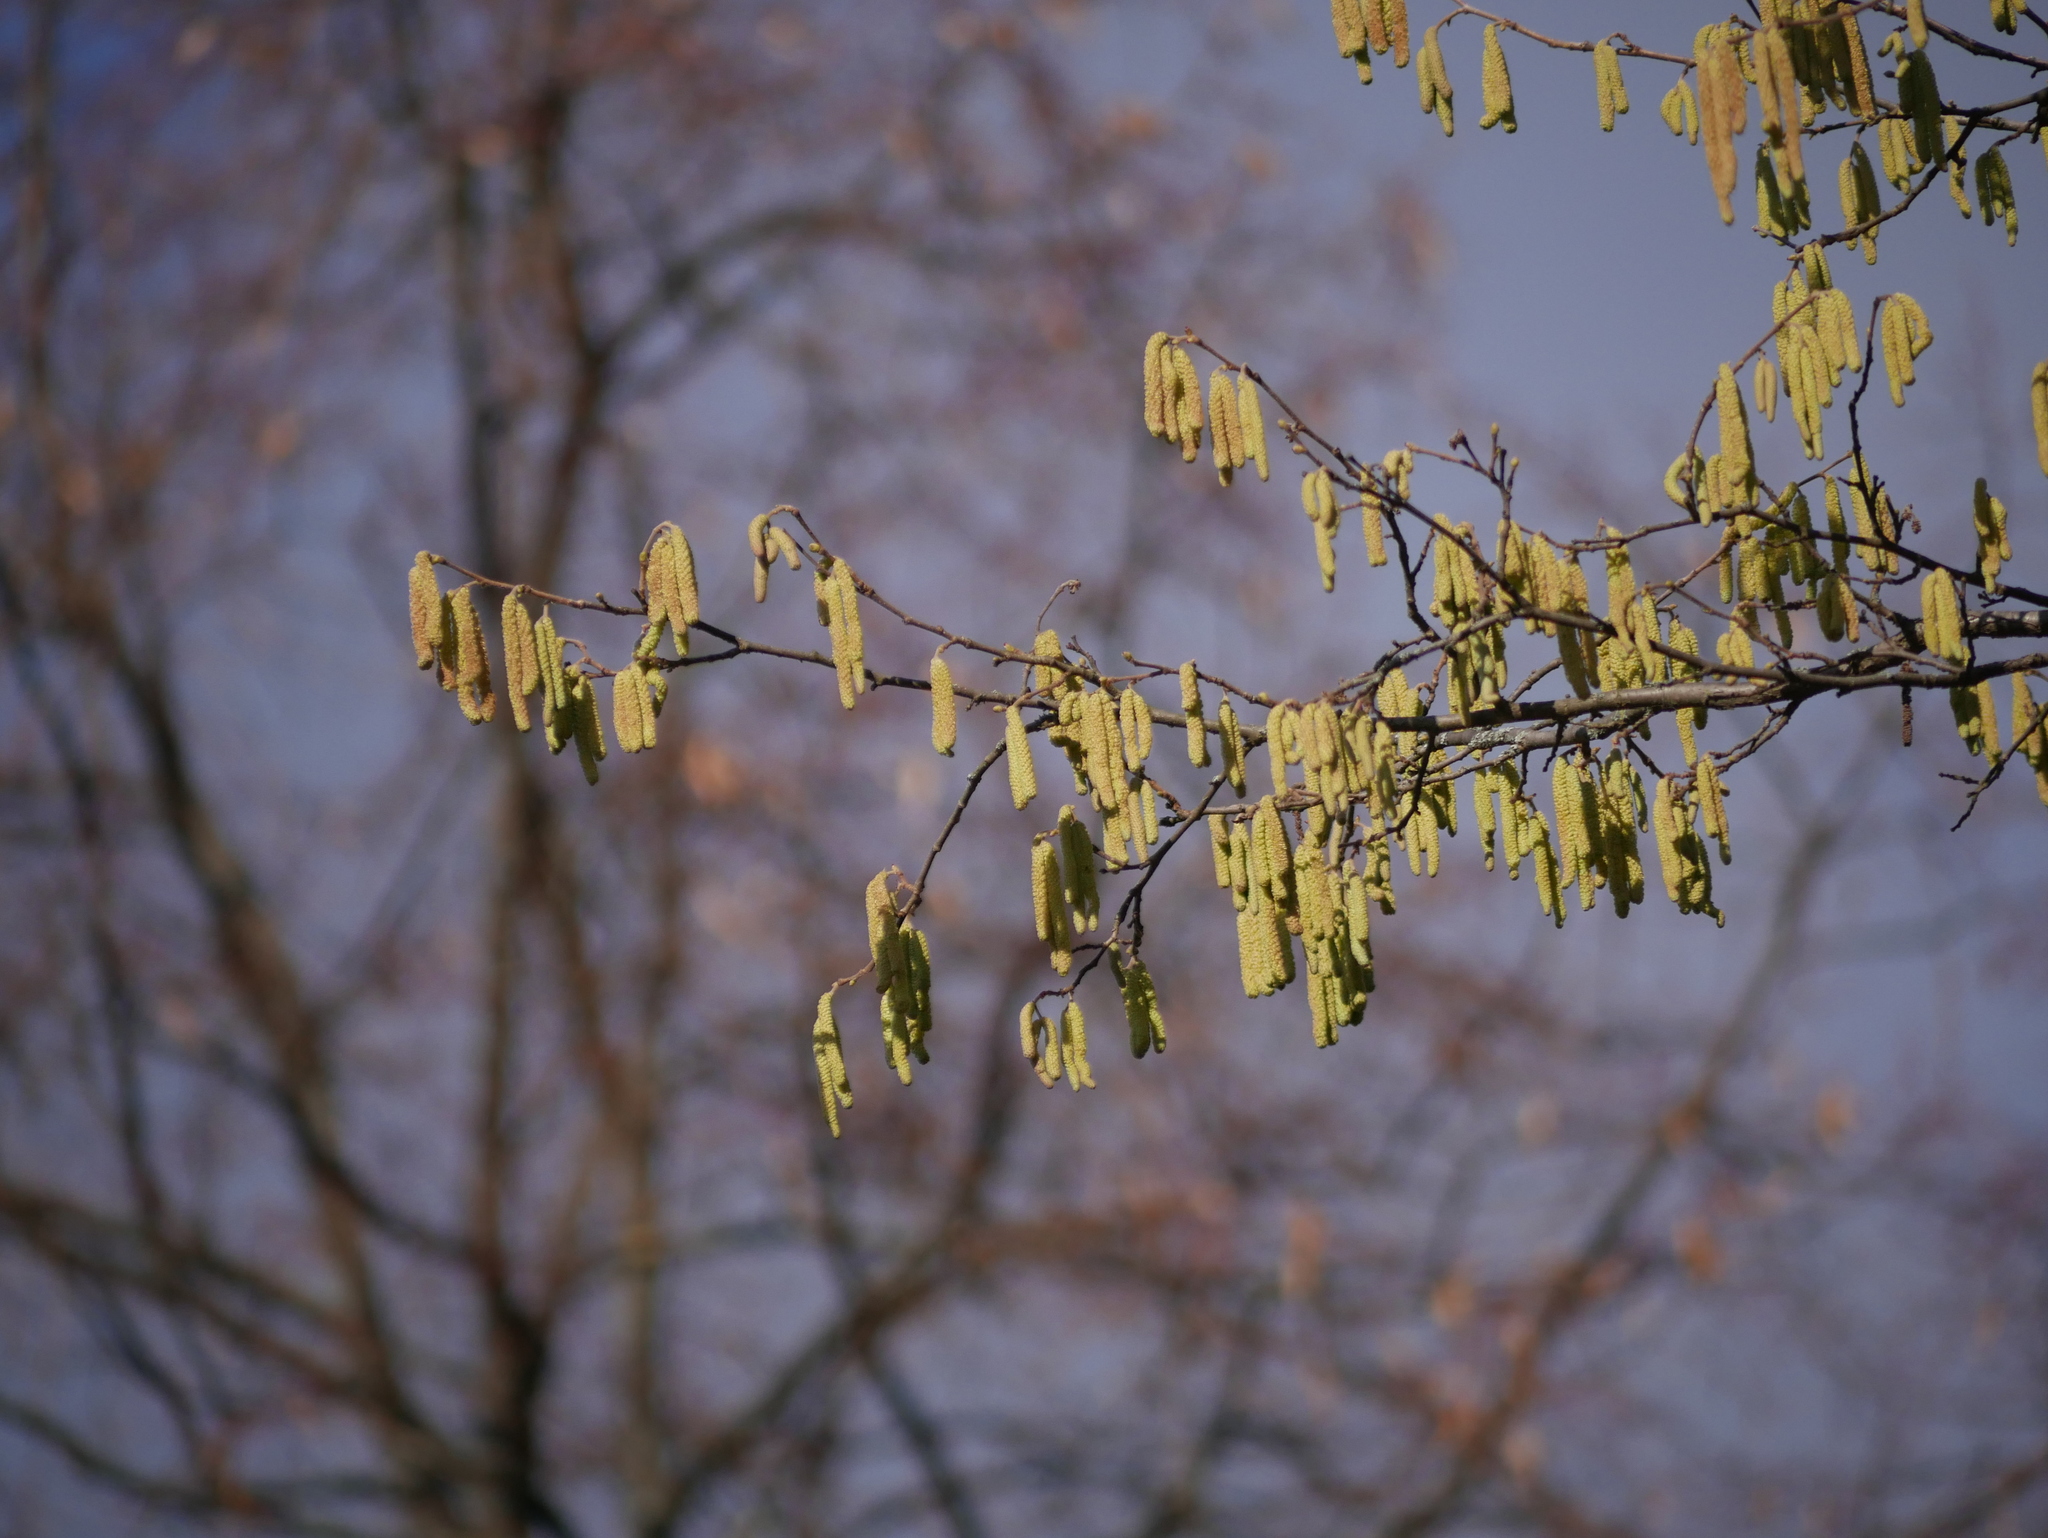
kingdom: Plantae
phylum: Tracheophyta
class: Magnoliopsida
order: Fagales
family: Betulaceae
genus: Corylus
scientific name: Corylus avellana
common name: European hazel
